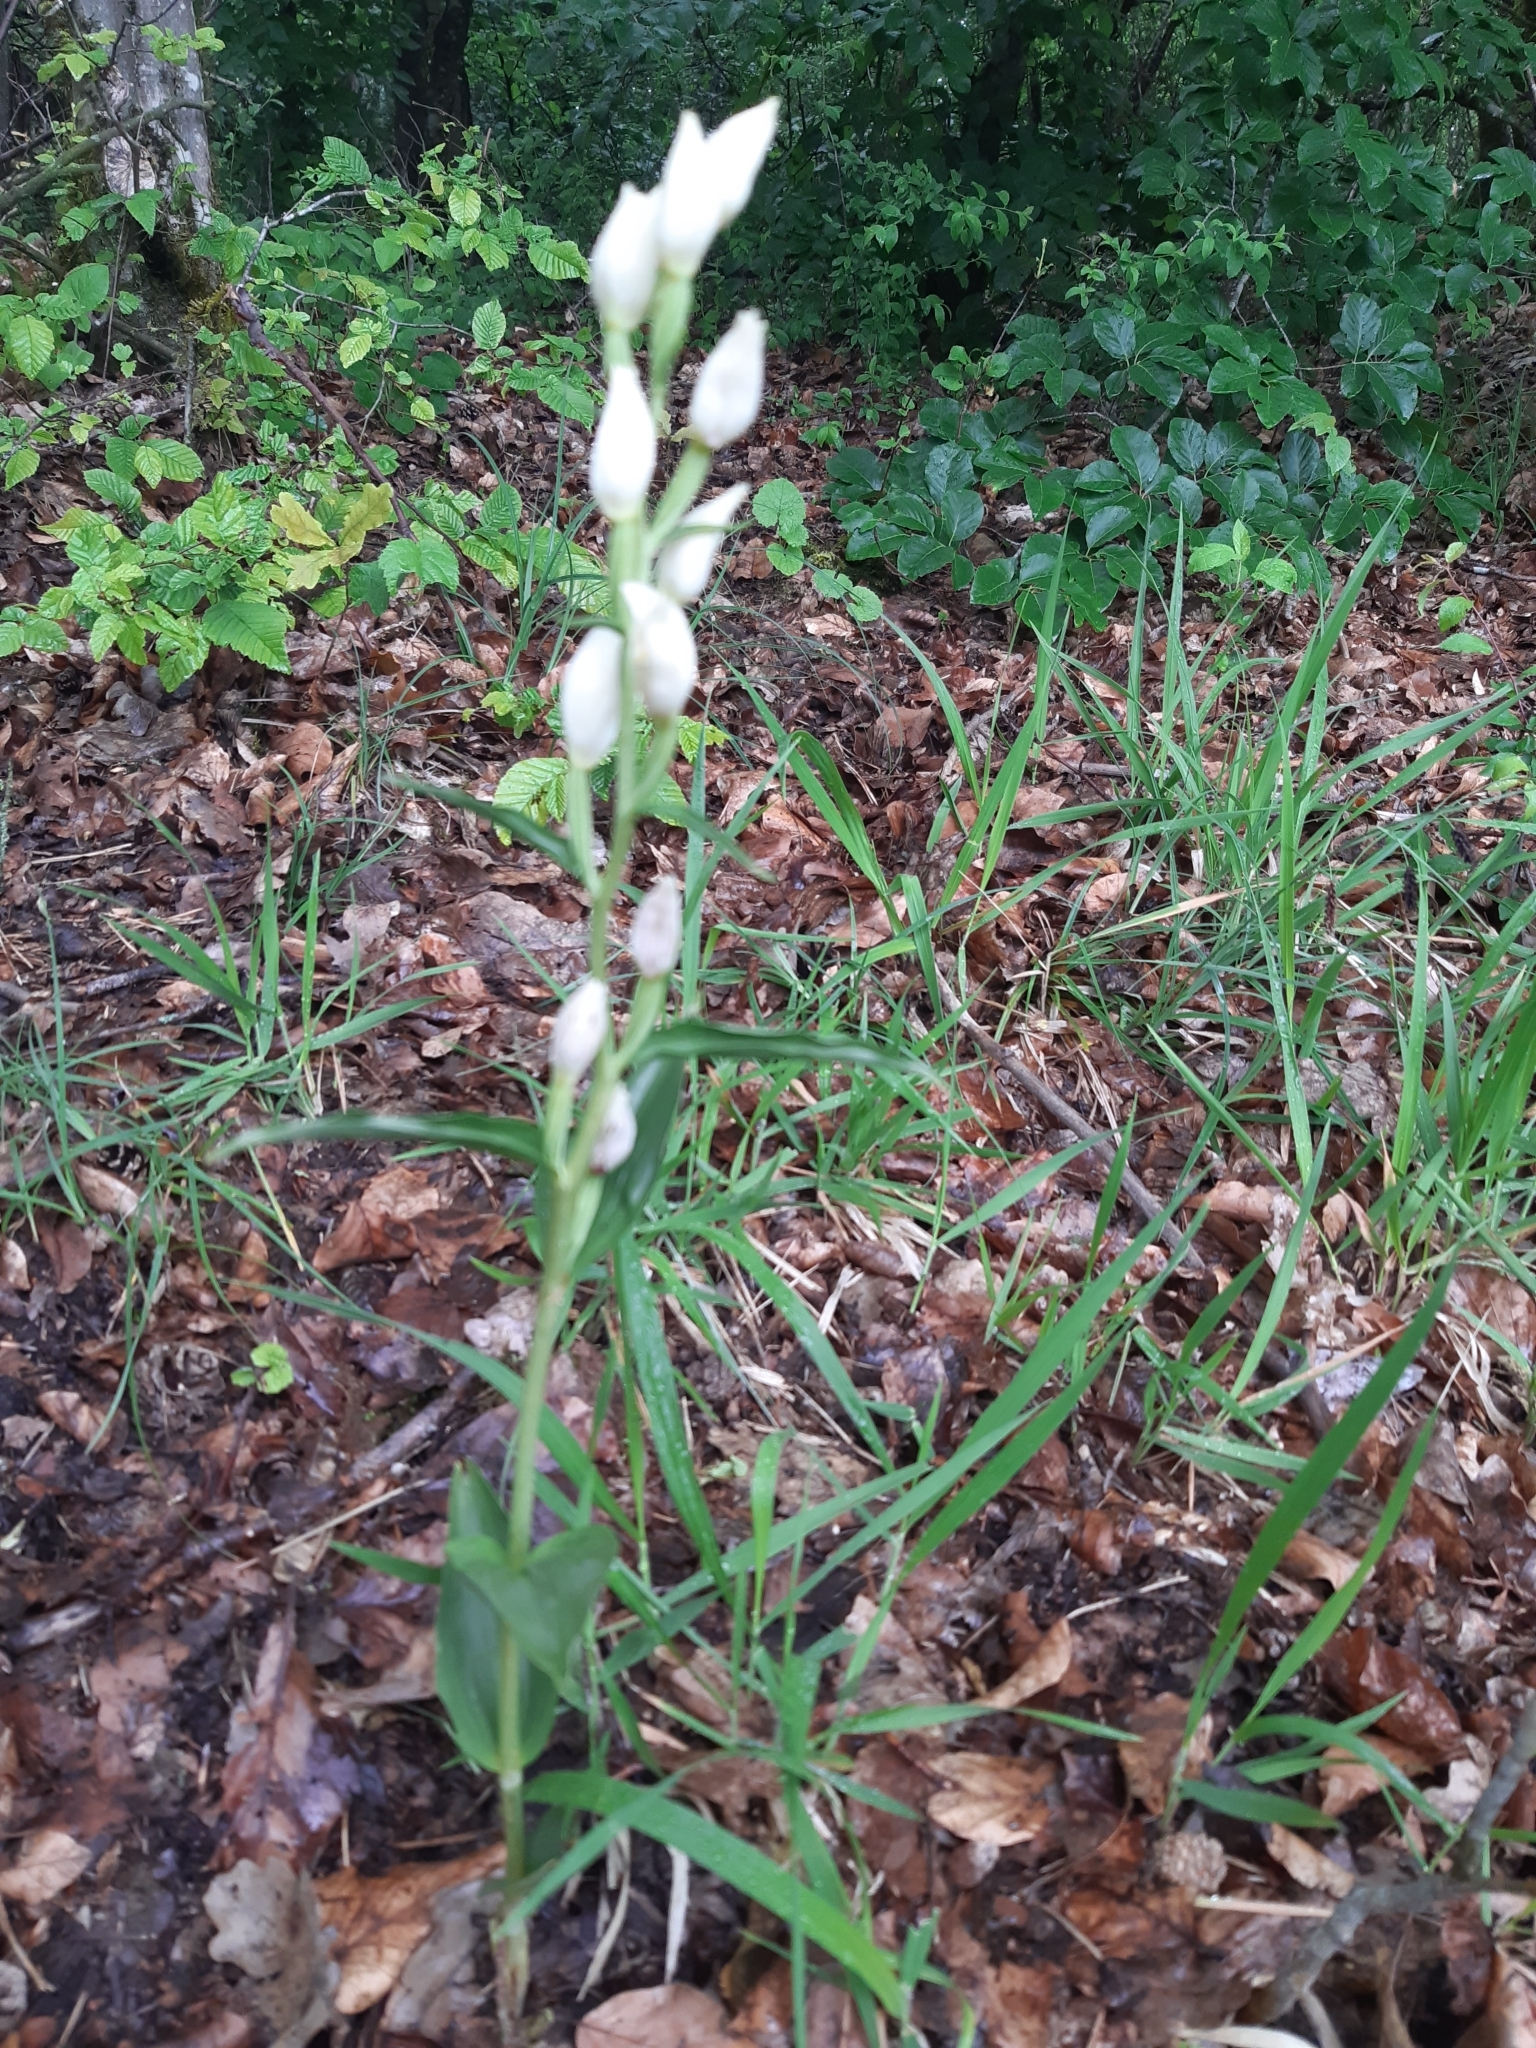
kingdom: Plantae
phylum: Tracheophyta
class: Liliopsida
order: Asparagales
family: Orchidaceae
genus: Cephalanthera
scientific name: Cephalanthera damasonium
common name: White helleborine
